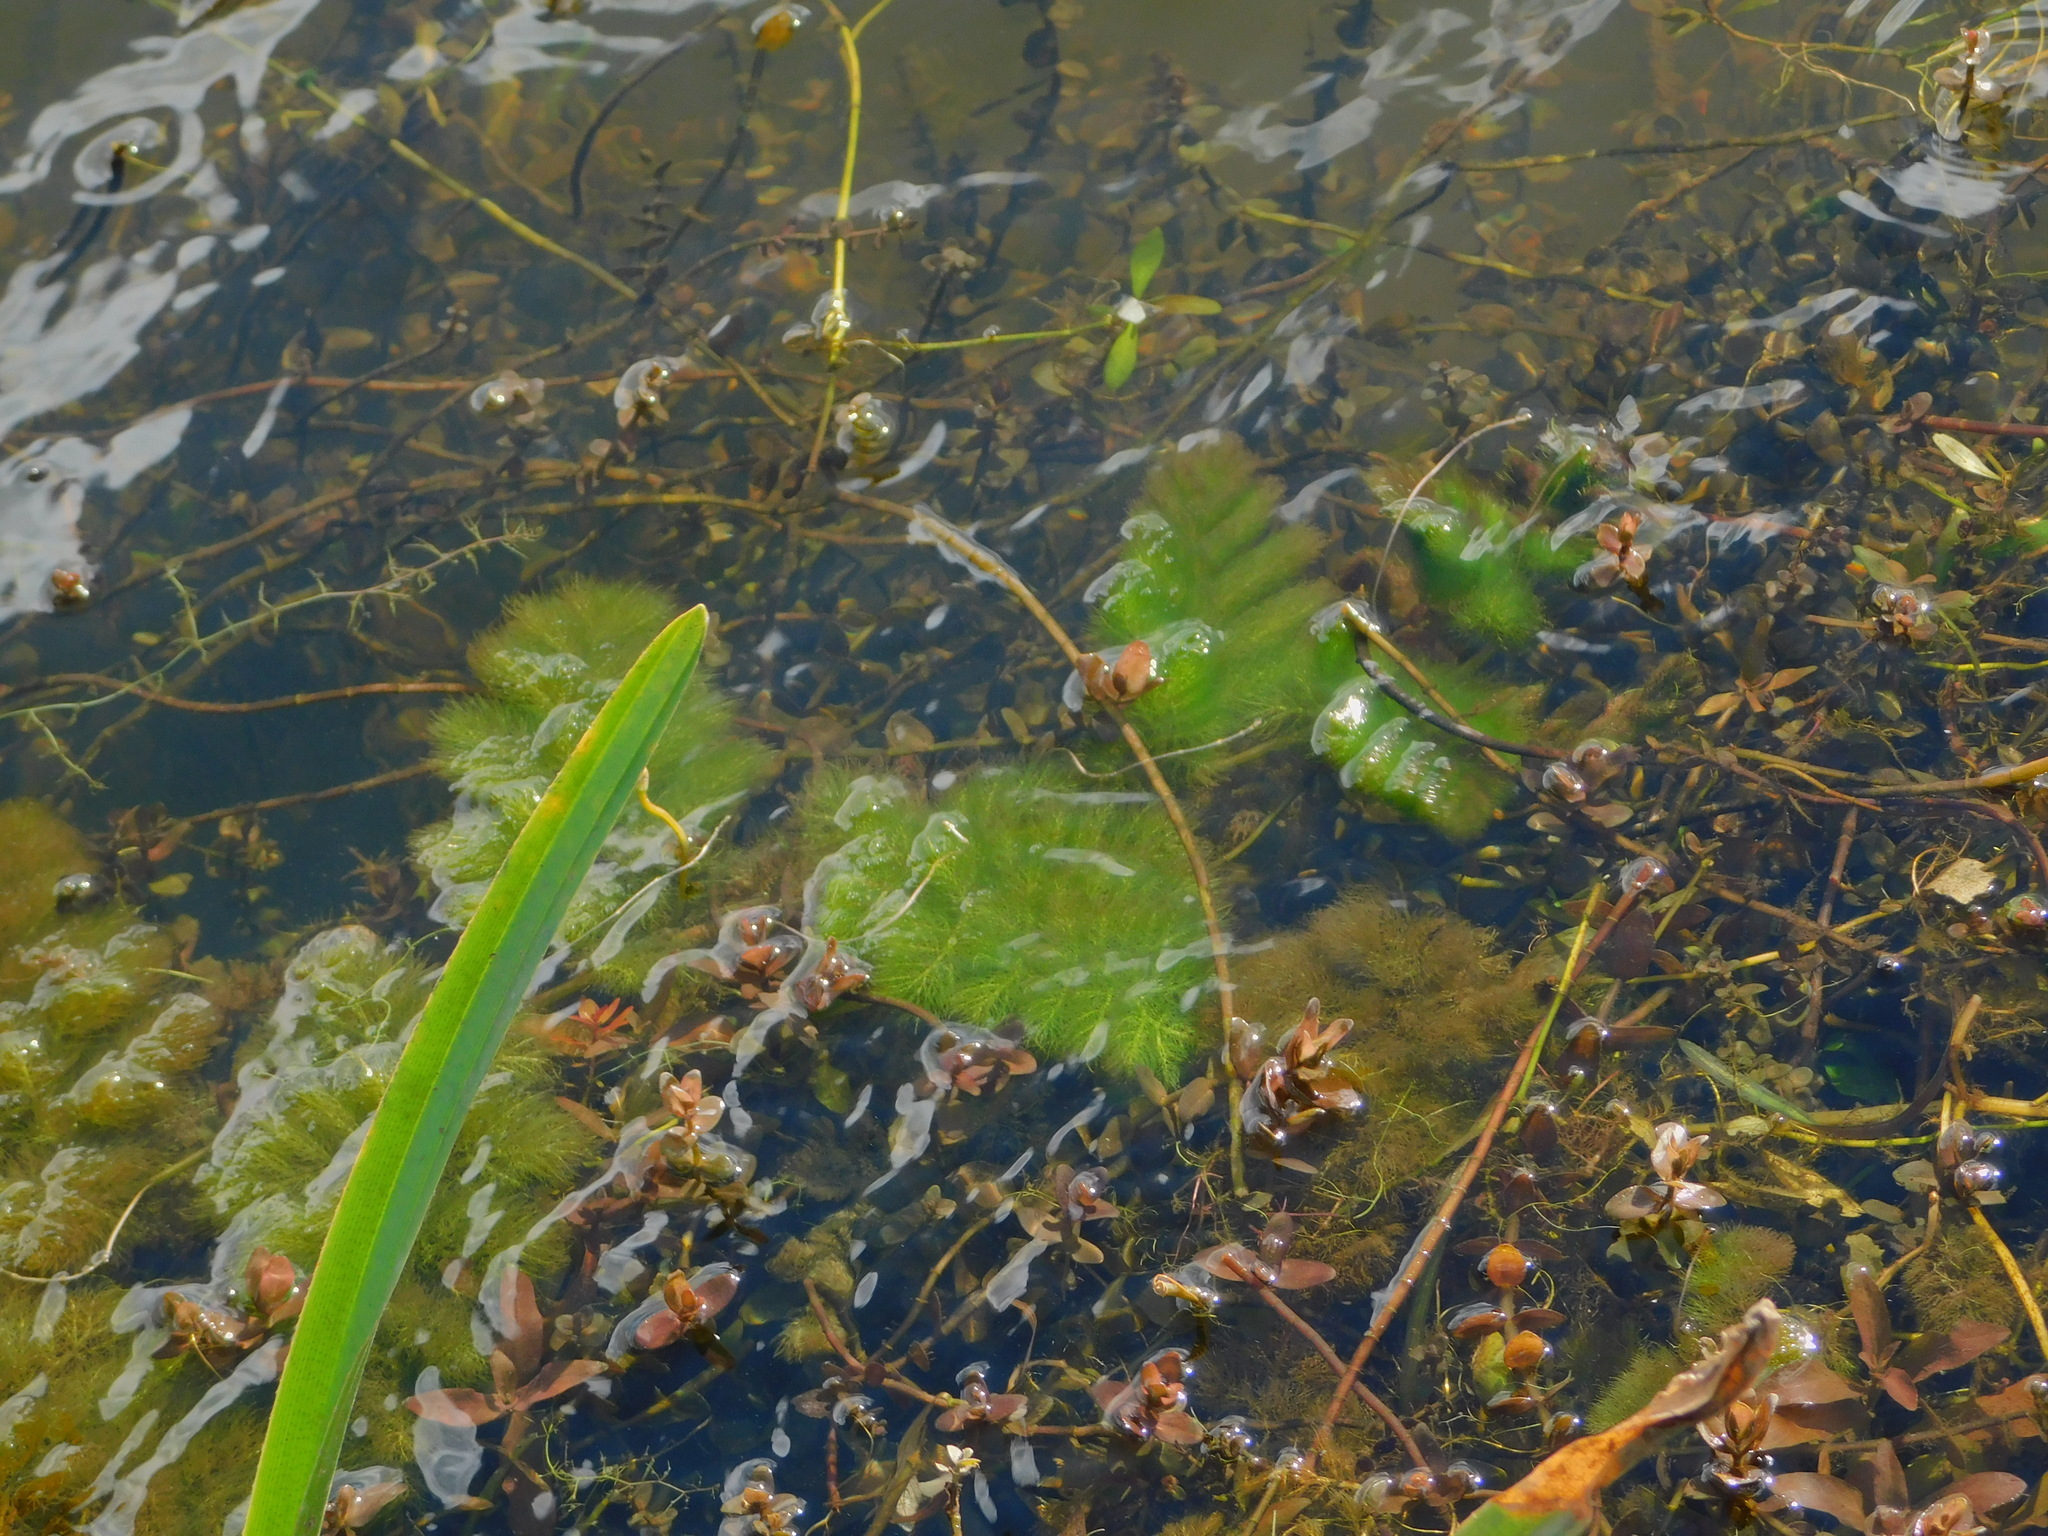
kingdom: Plantae
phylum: Tracheophyta
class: Magnoliopsida
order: Lamiales
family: Lentibulariaceae
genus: Utricularia
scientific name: Utricularia foliosa
